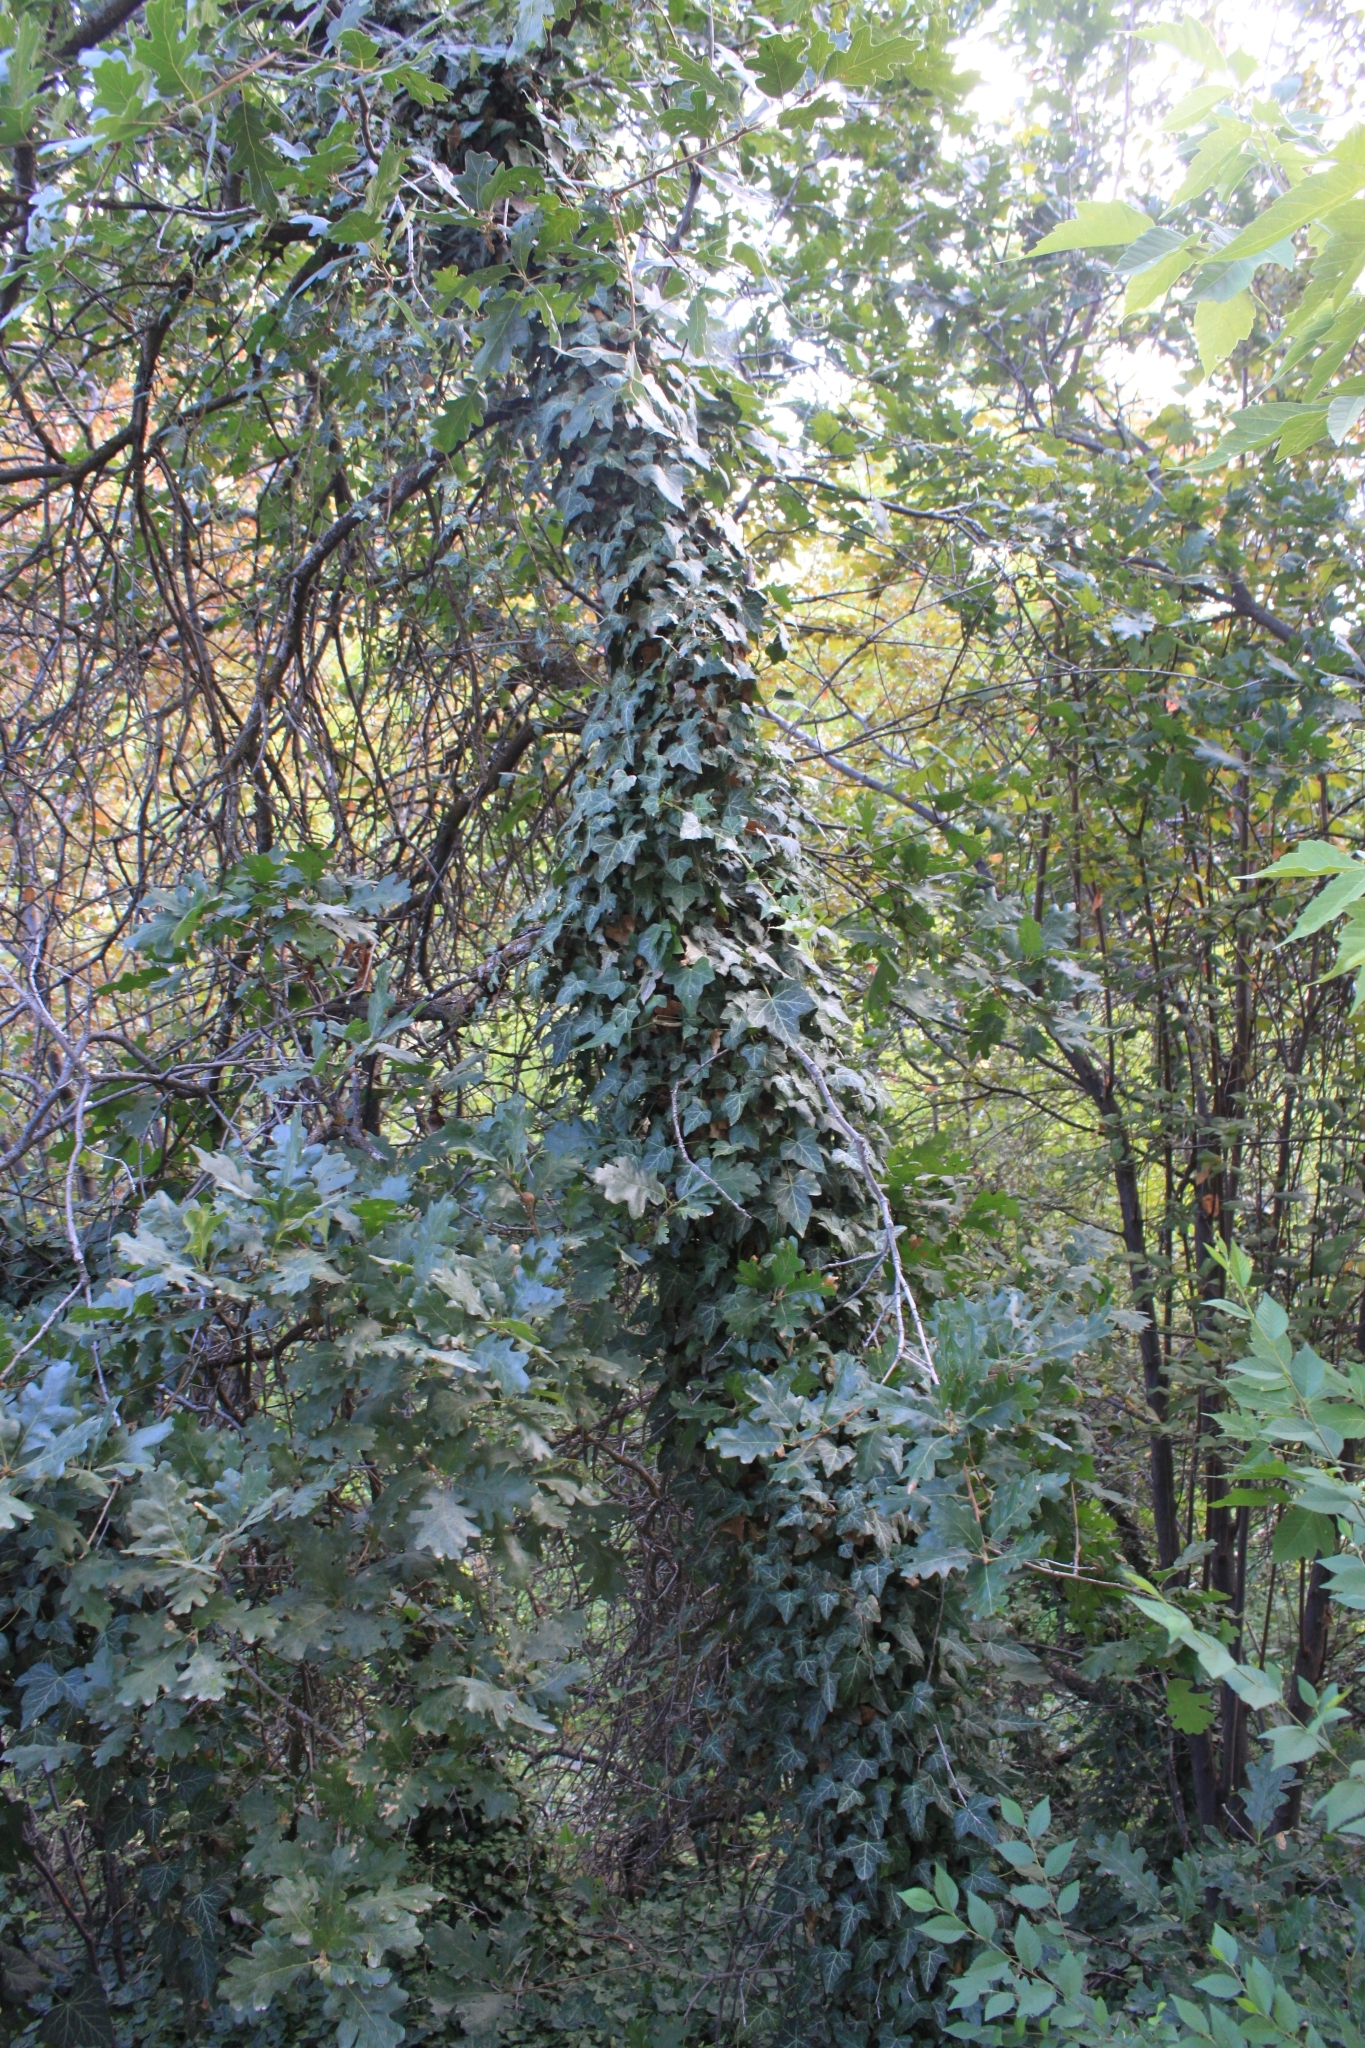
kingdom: Plantae
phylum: Tracheophyta
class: Magnoliopsida
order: Apiales
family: Araliaceae
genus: Hedera
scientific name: Hedera helix
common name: Ivy
